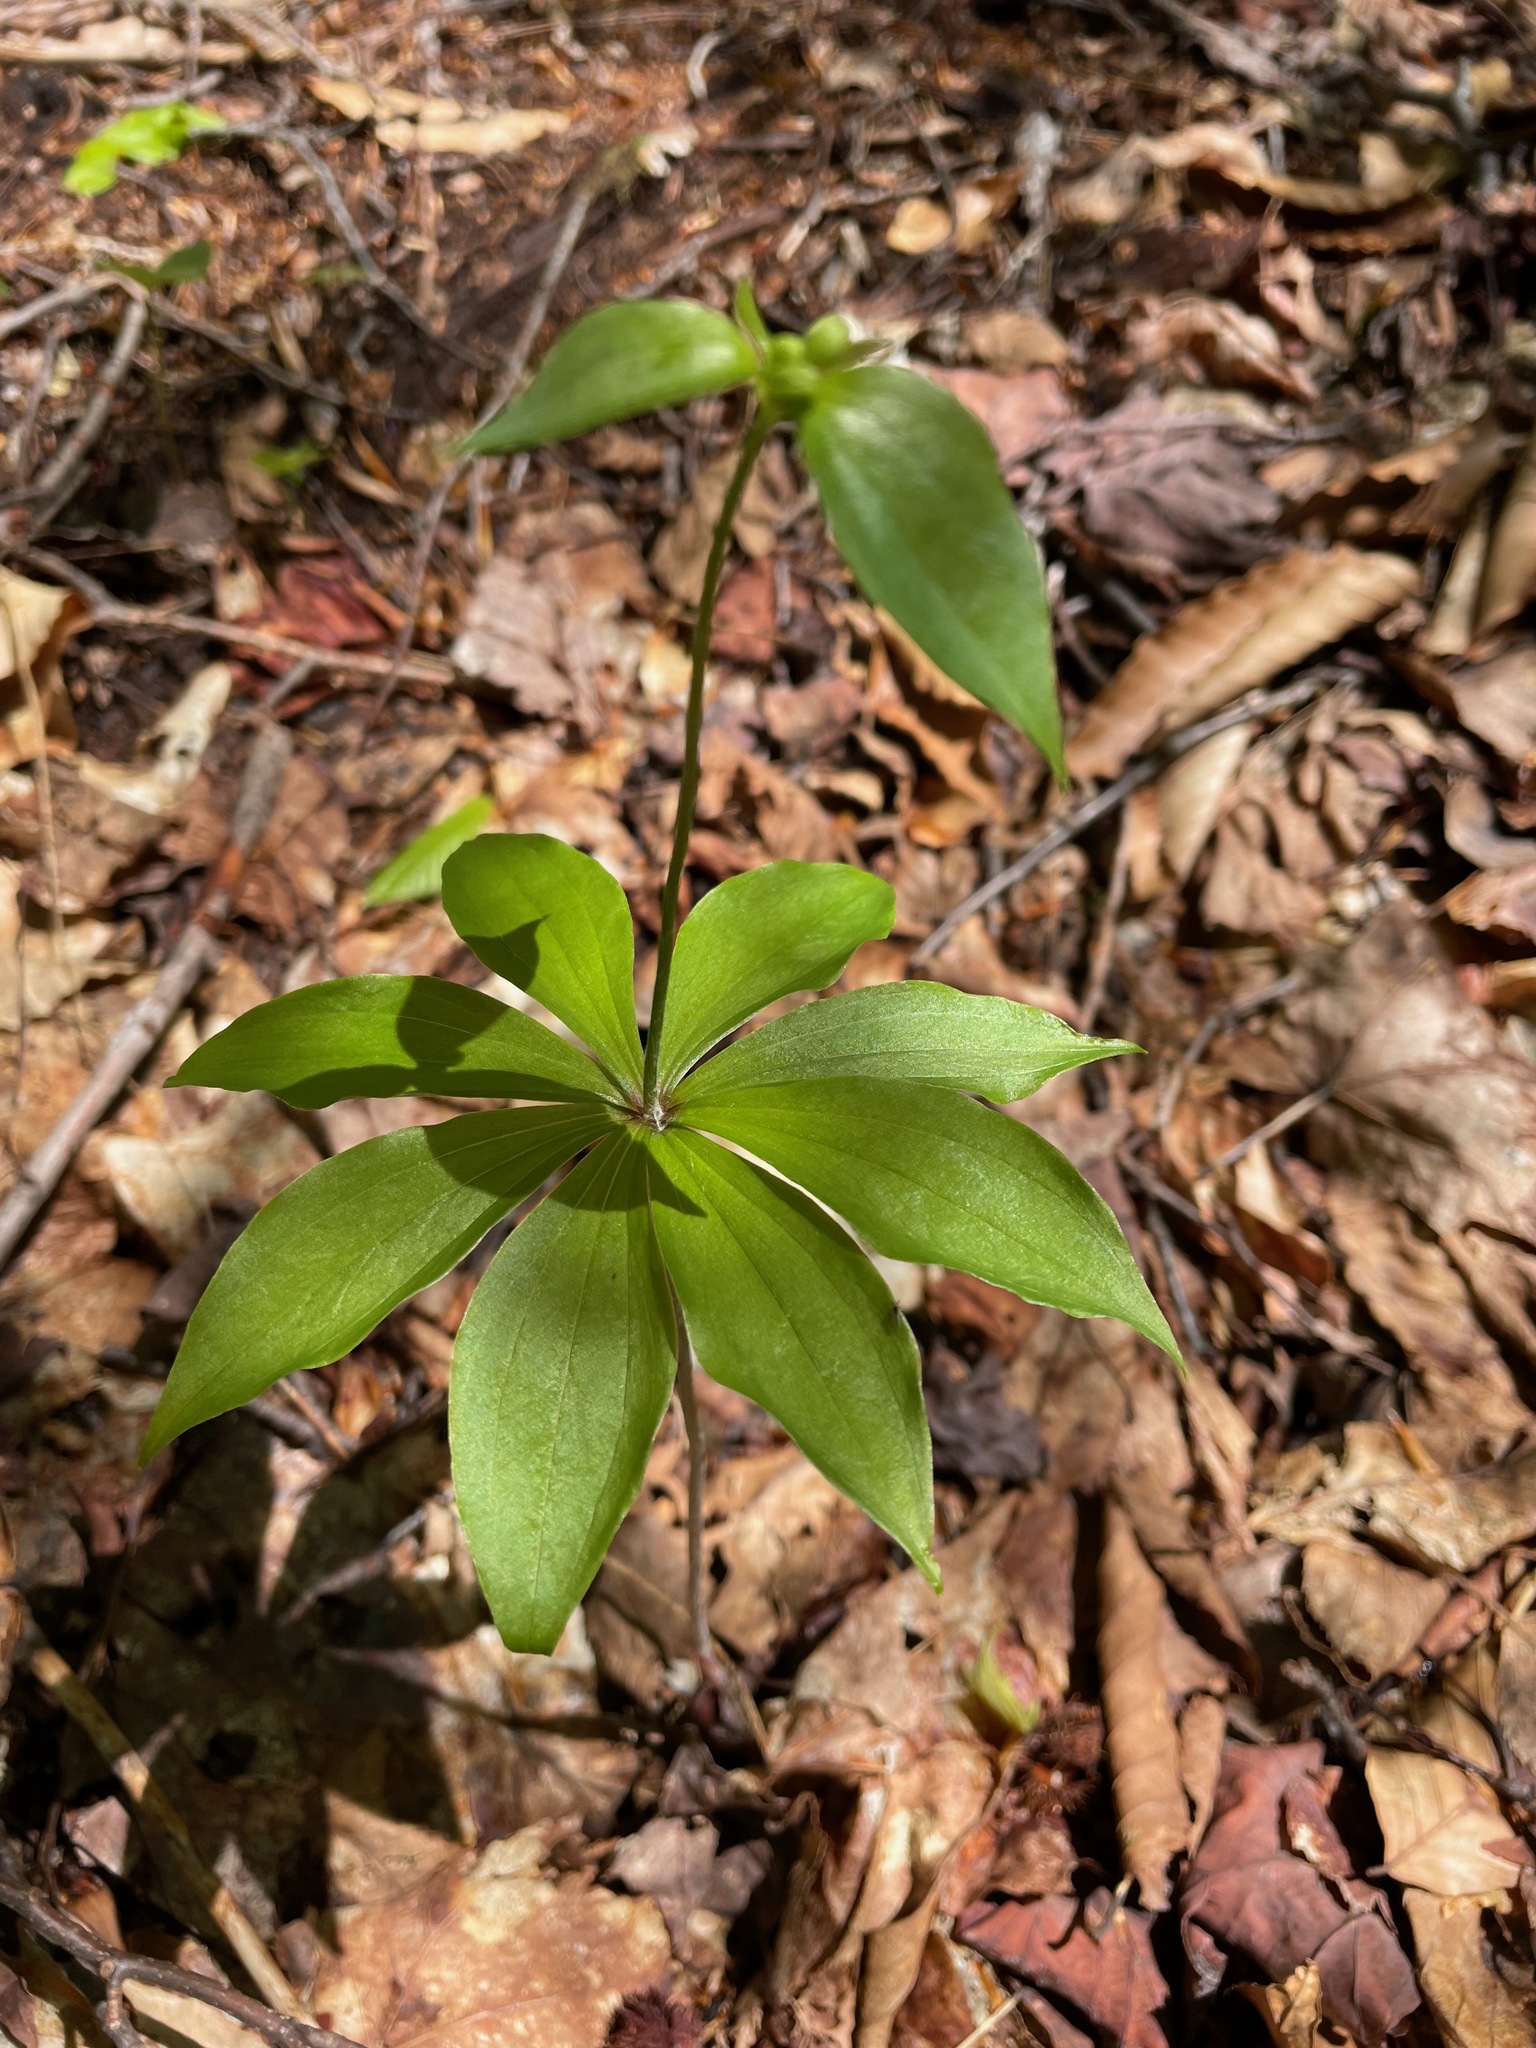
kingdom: Plantae
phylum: Tracheophyta
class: Liliopsida
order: Liliales
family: Liliaceae
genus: Medeola
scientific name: Medeola virginiana
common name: Indian cucumber-root
